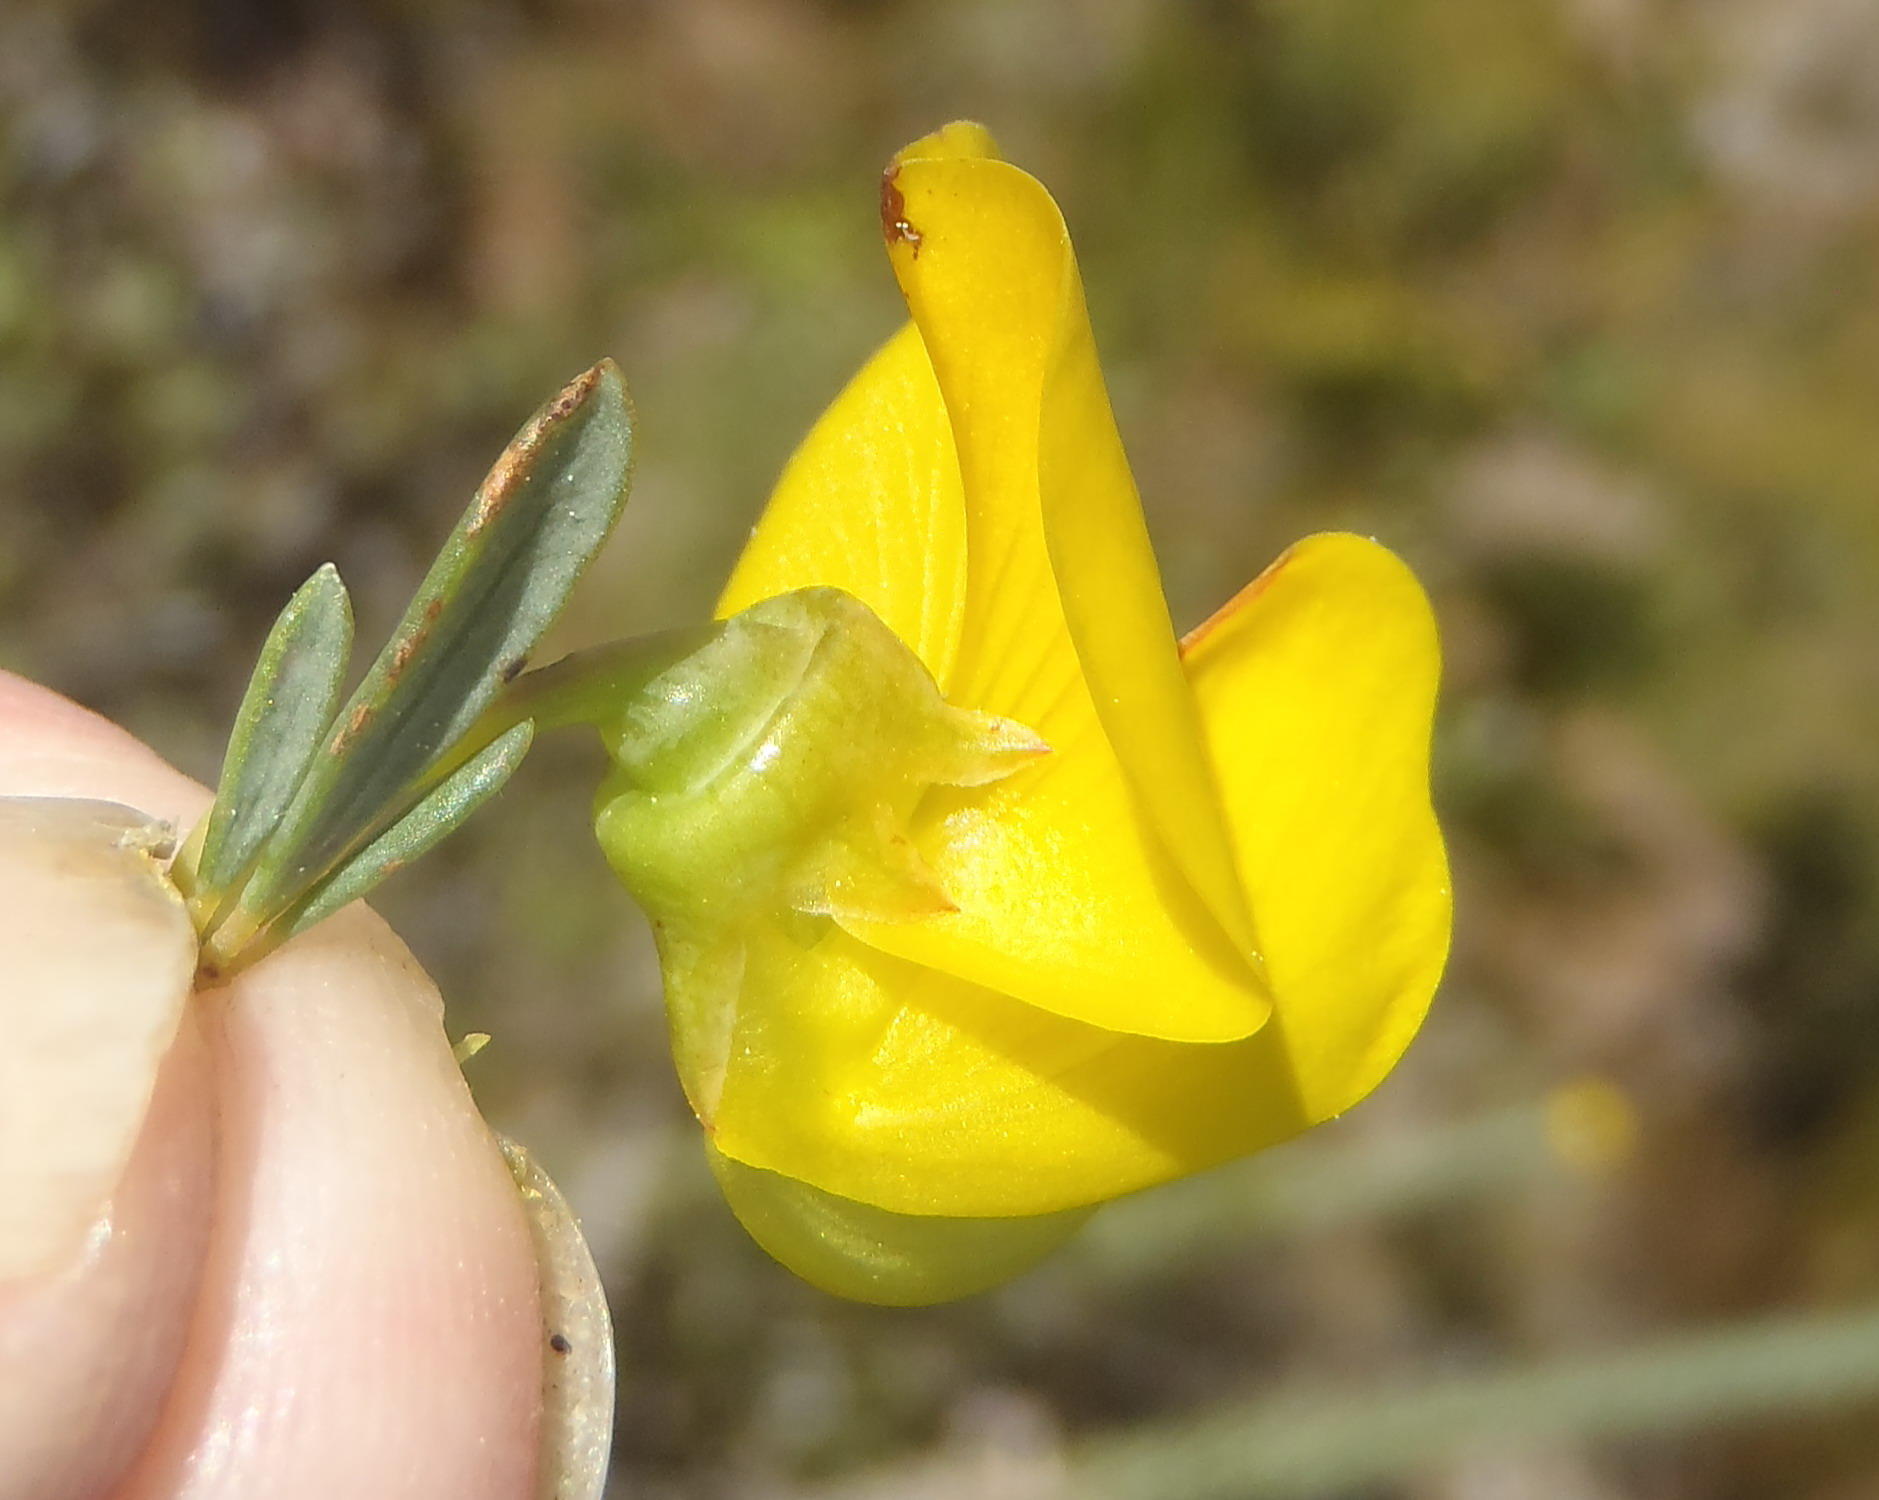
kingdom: Plantae
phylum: Tracheophyta
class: Magnoliopsida
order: Fabales
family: Fabaceae
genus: Cyclopia
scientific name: Cyclopia subternata
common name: Honeybush tea
